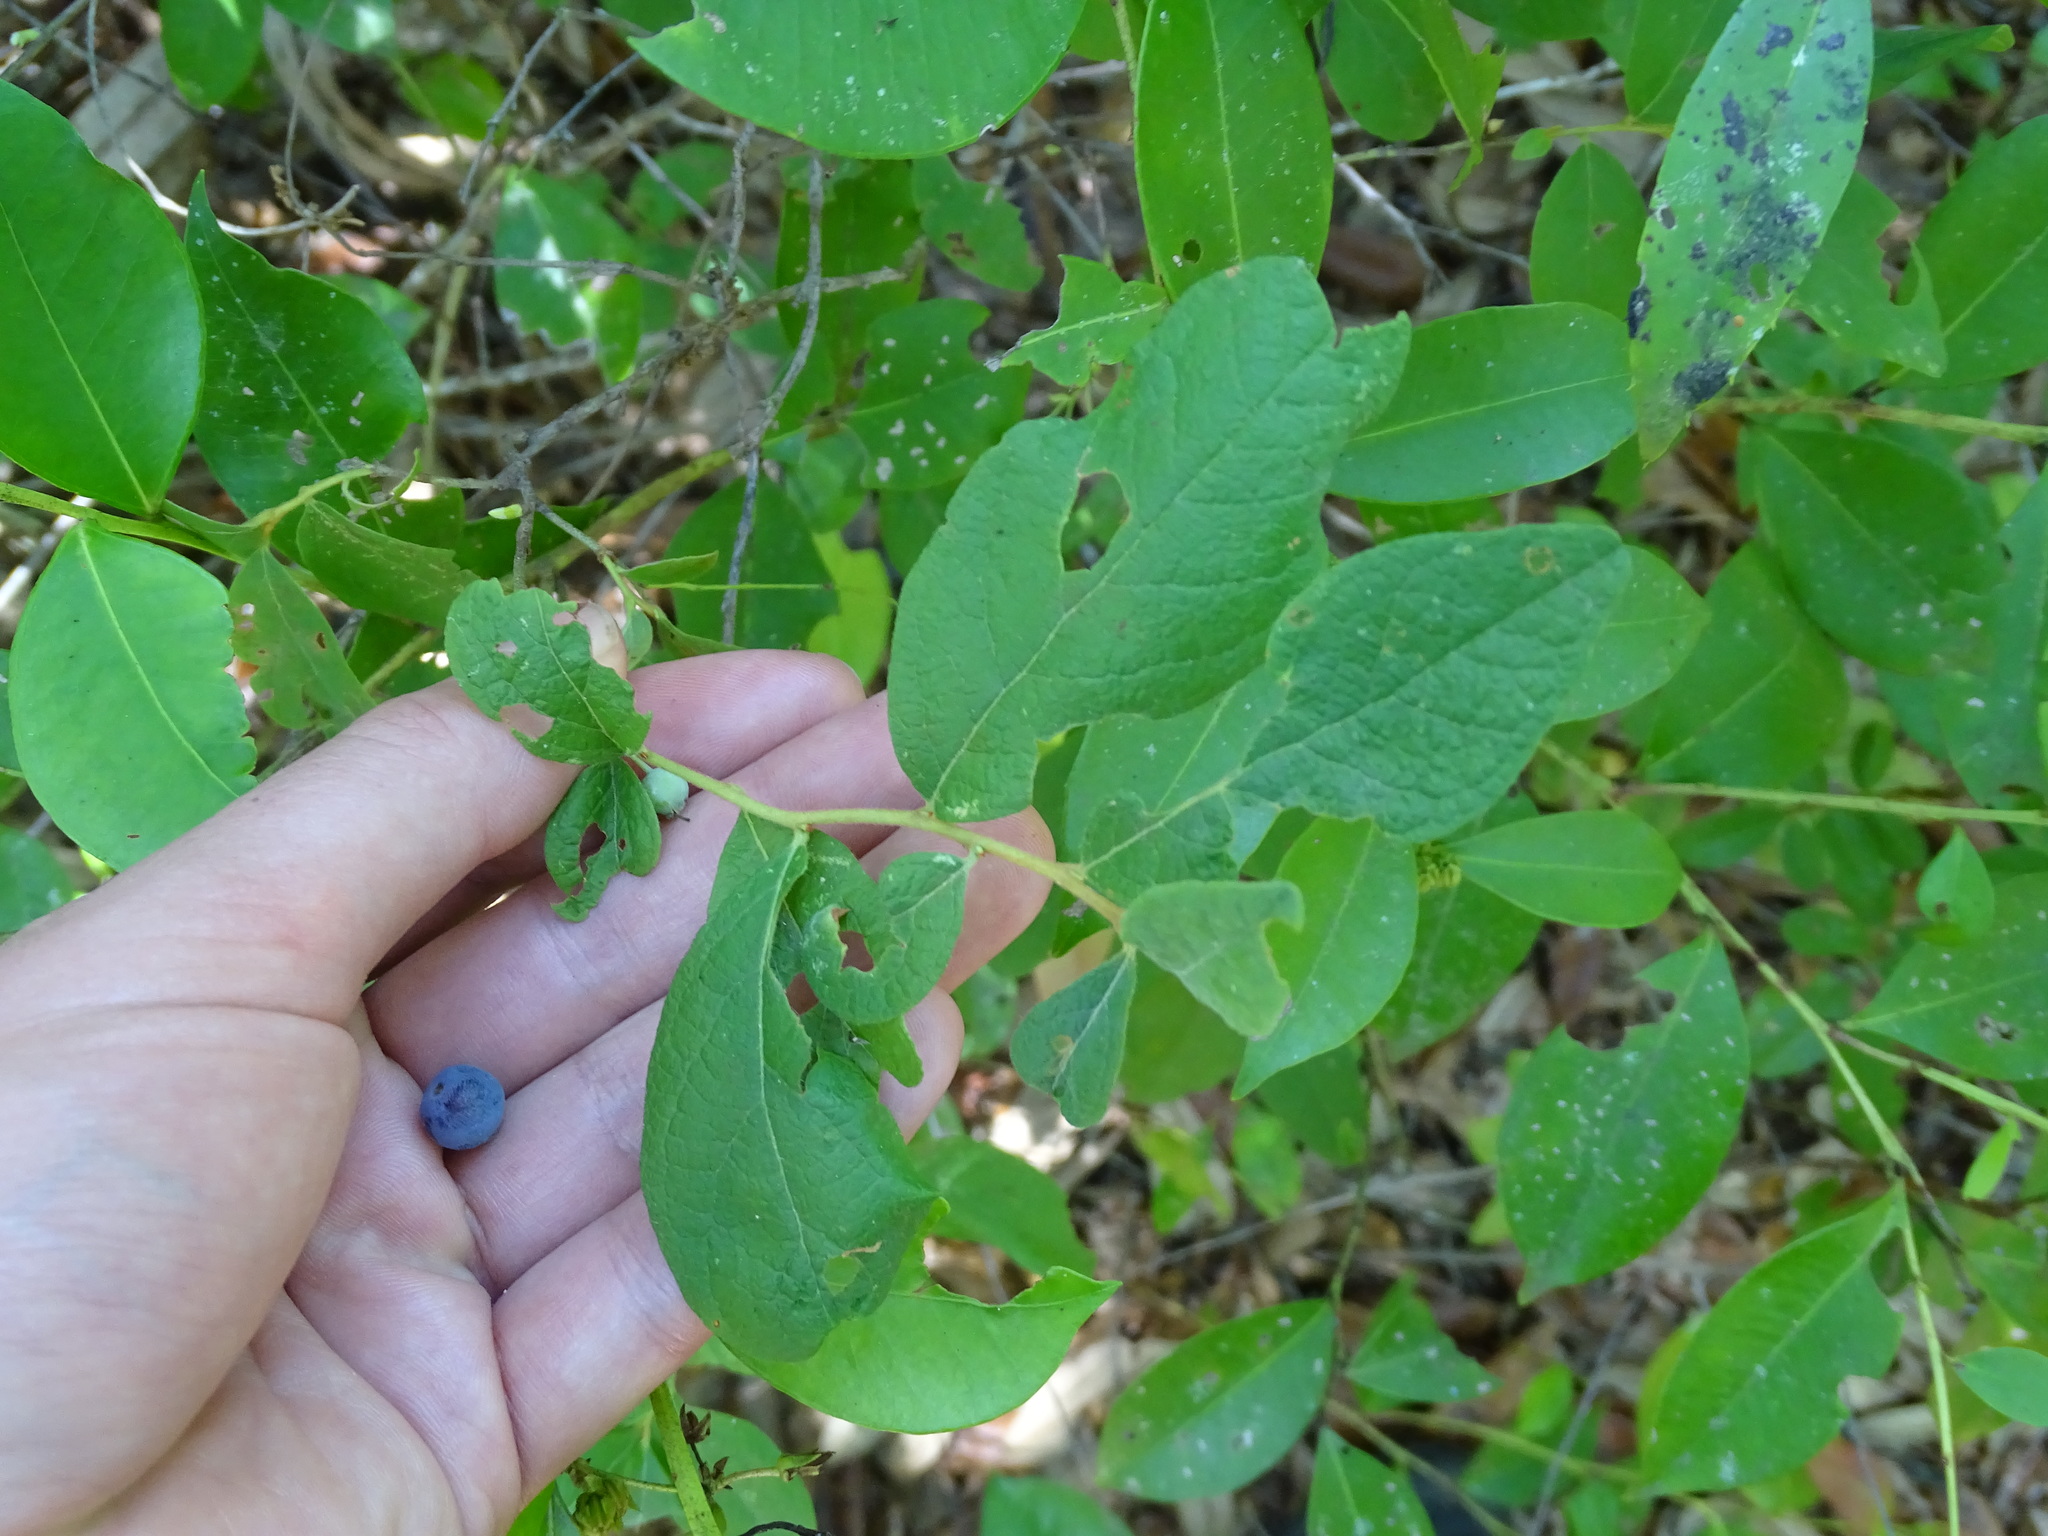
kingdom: Plantae
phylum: Tracheophyta
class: Magnoliopsida
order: Ericales
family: Ericaceae
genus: Gaylussacia
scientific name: Gaylussacia tomentosa
